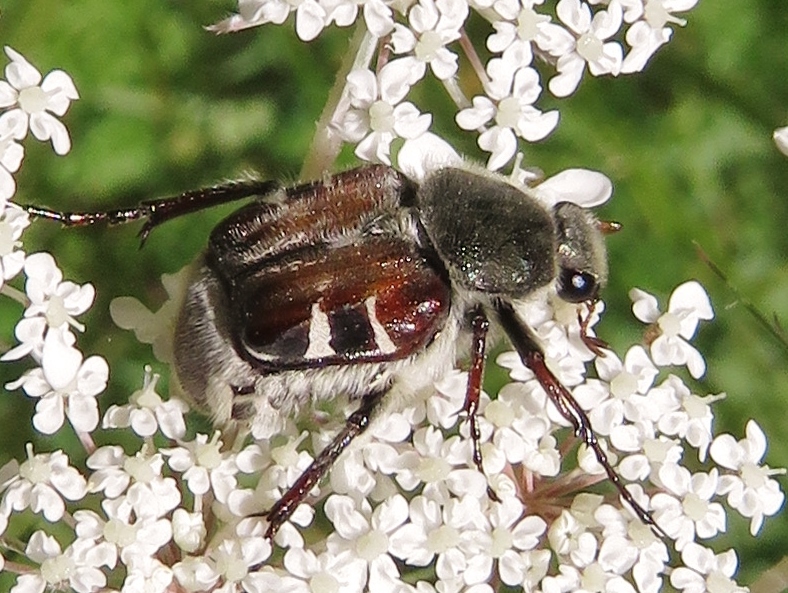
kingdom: Animalia
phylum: Arthropoda
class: Insecta
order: Coleoptera
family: Scarabaeidae
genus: Trichiotinus
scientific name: Trichiotinus piger
